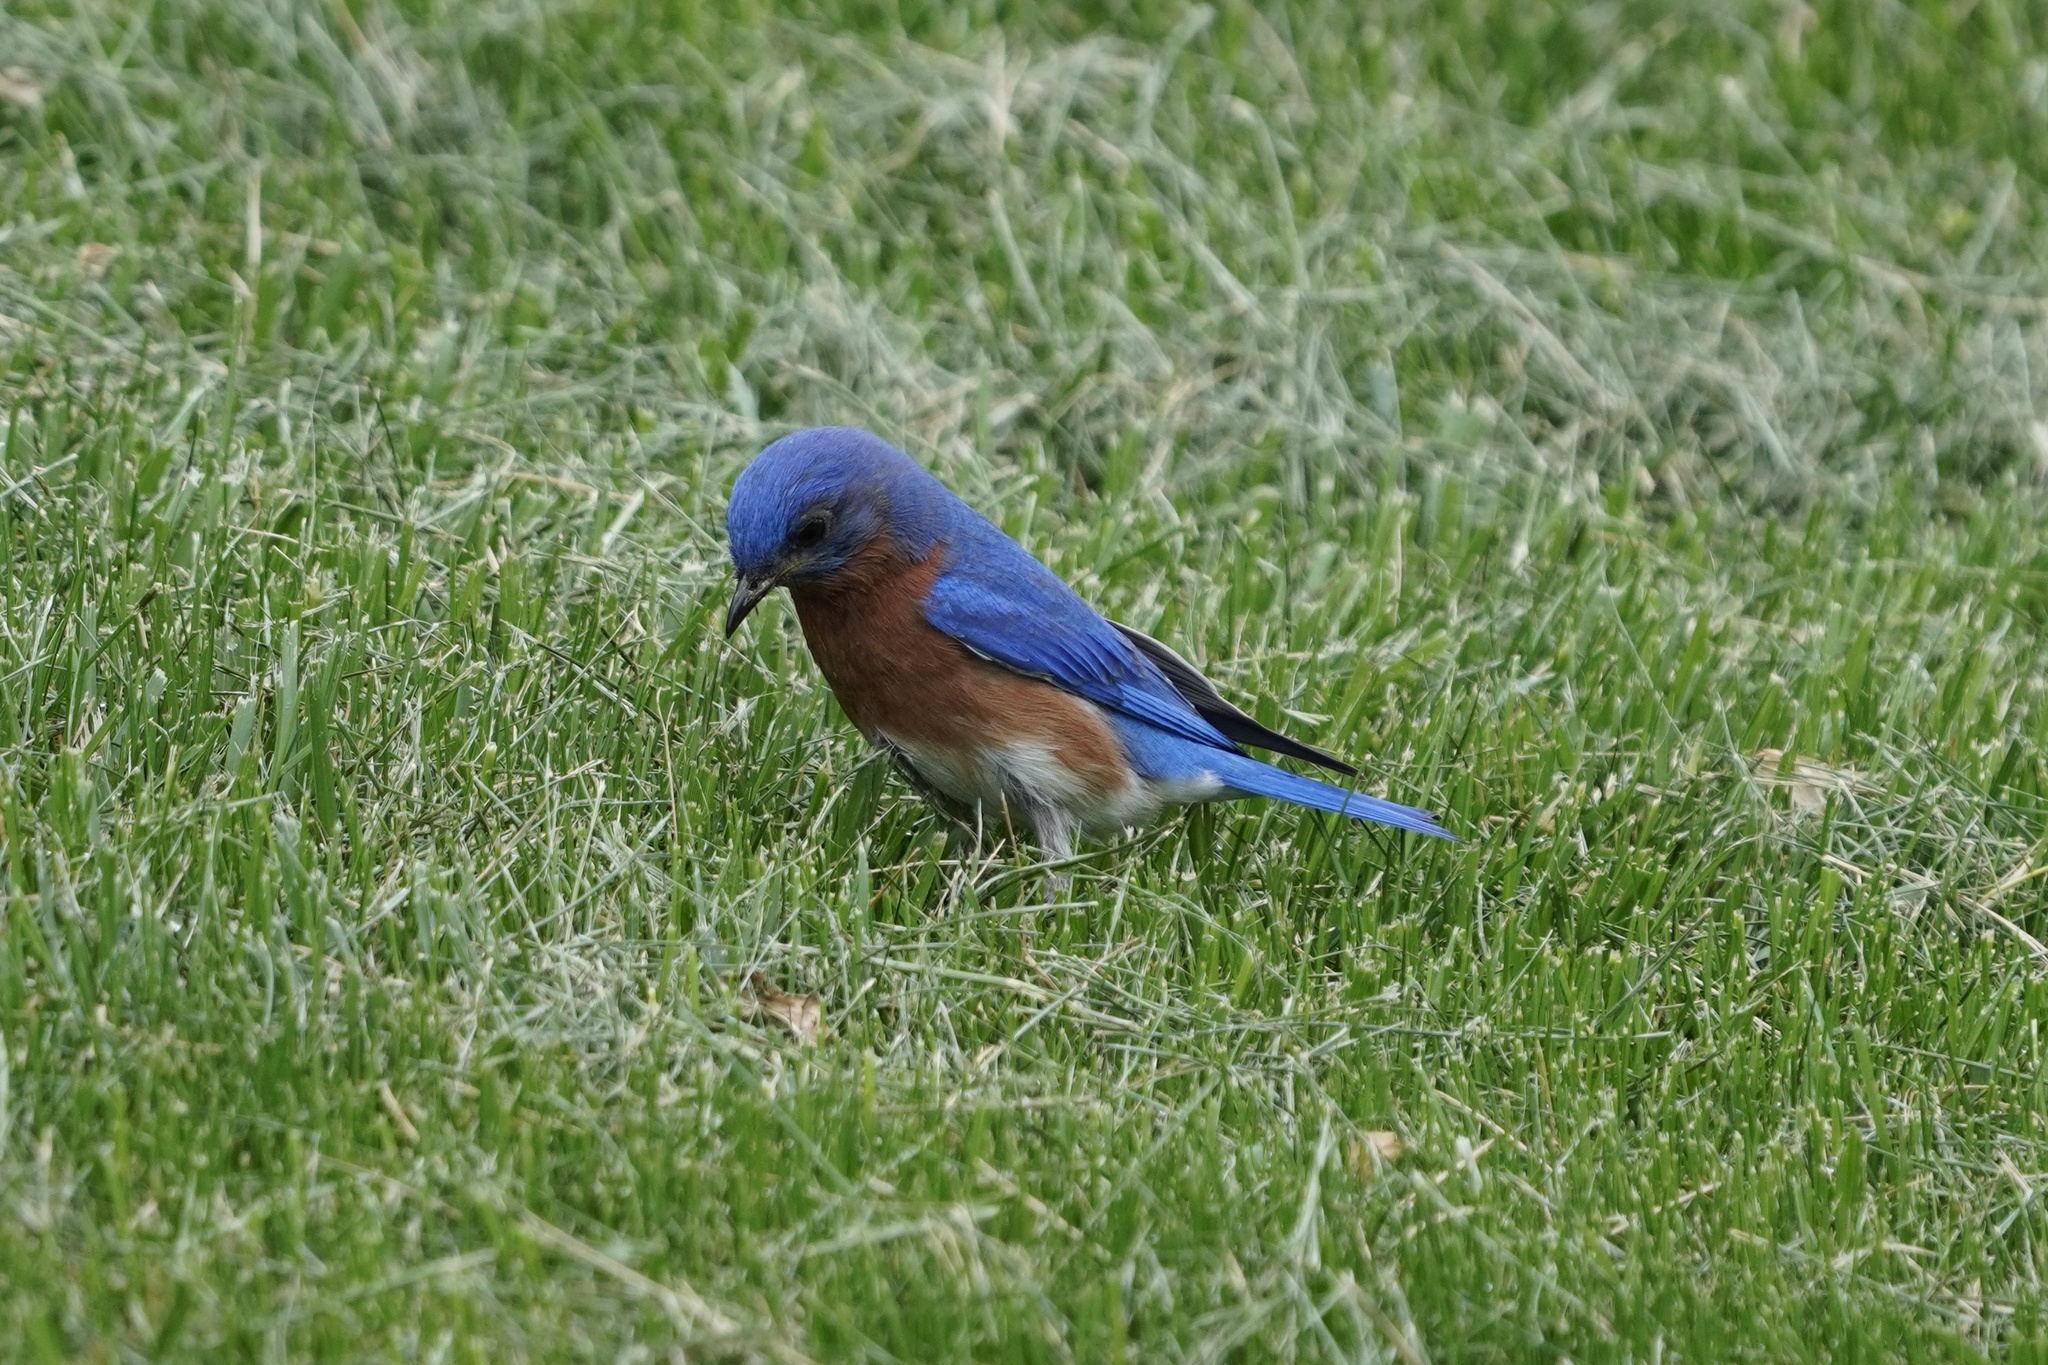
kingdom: Animalia
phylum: Chordata
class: Aves
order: Passeriformes
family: Turdidae
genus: Sialia
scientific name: Sialia sialis
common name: Eastern bluebird
